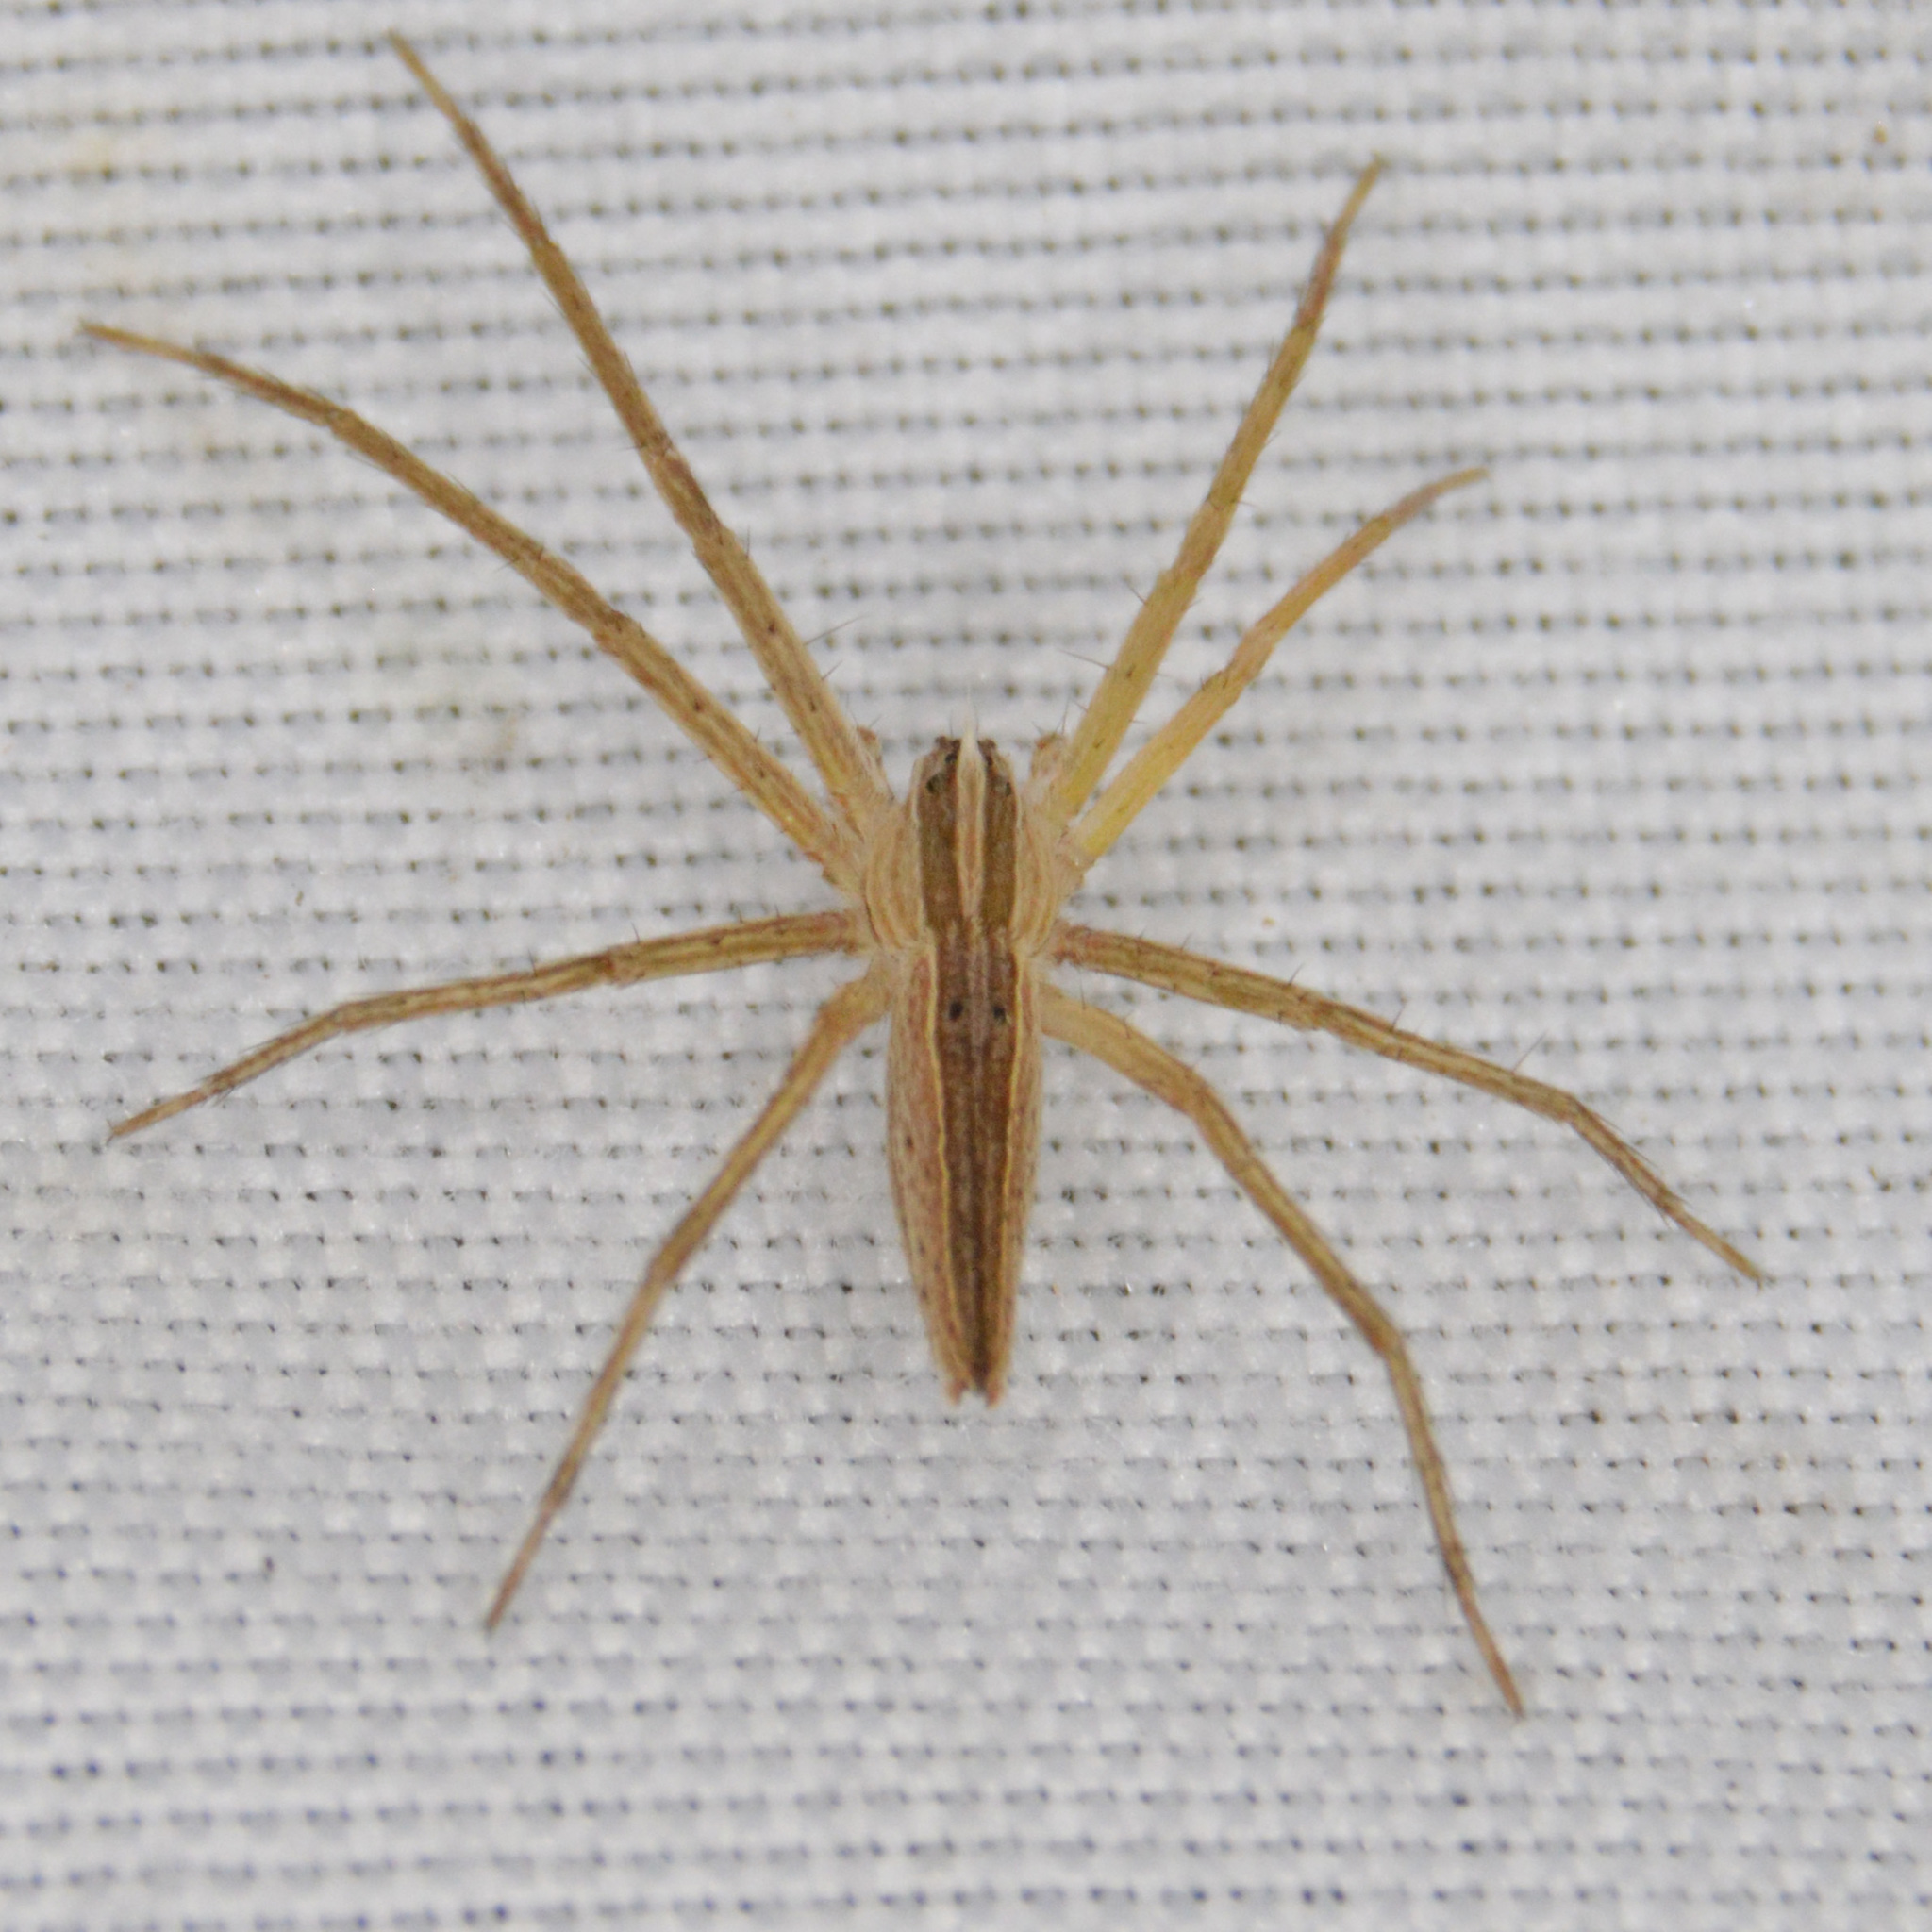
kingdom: Animalia
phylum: Arthropoda
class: Arachnida
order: Araneae
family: Pisauridae
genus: Pisaurina
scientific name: Pisaurina dubia
